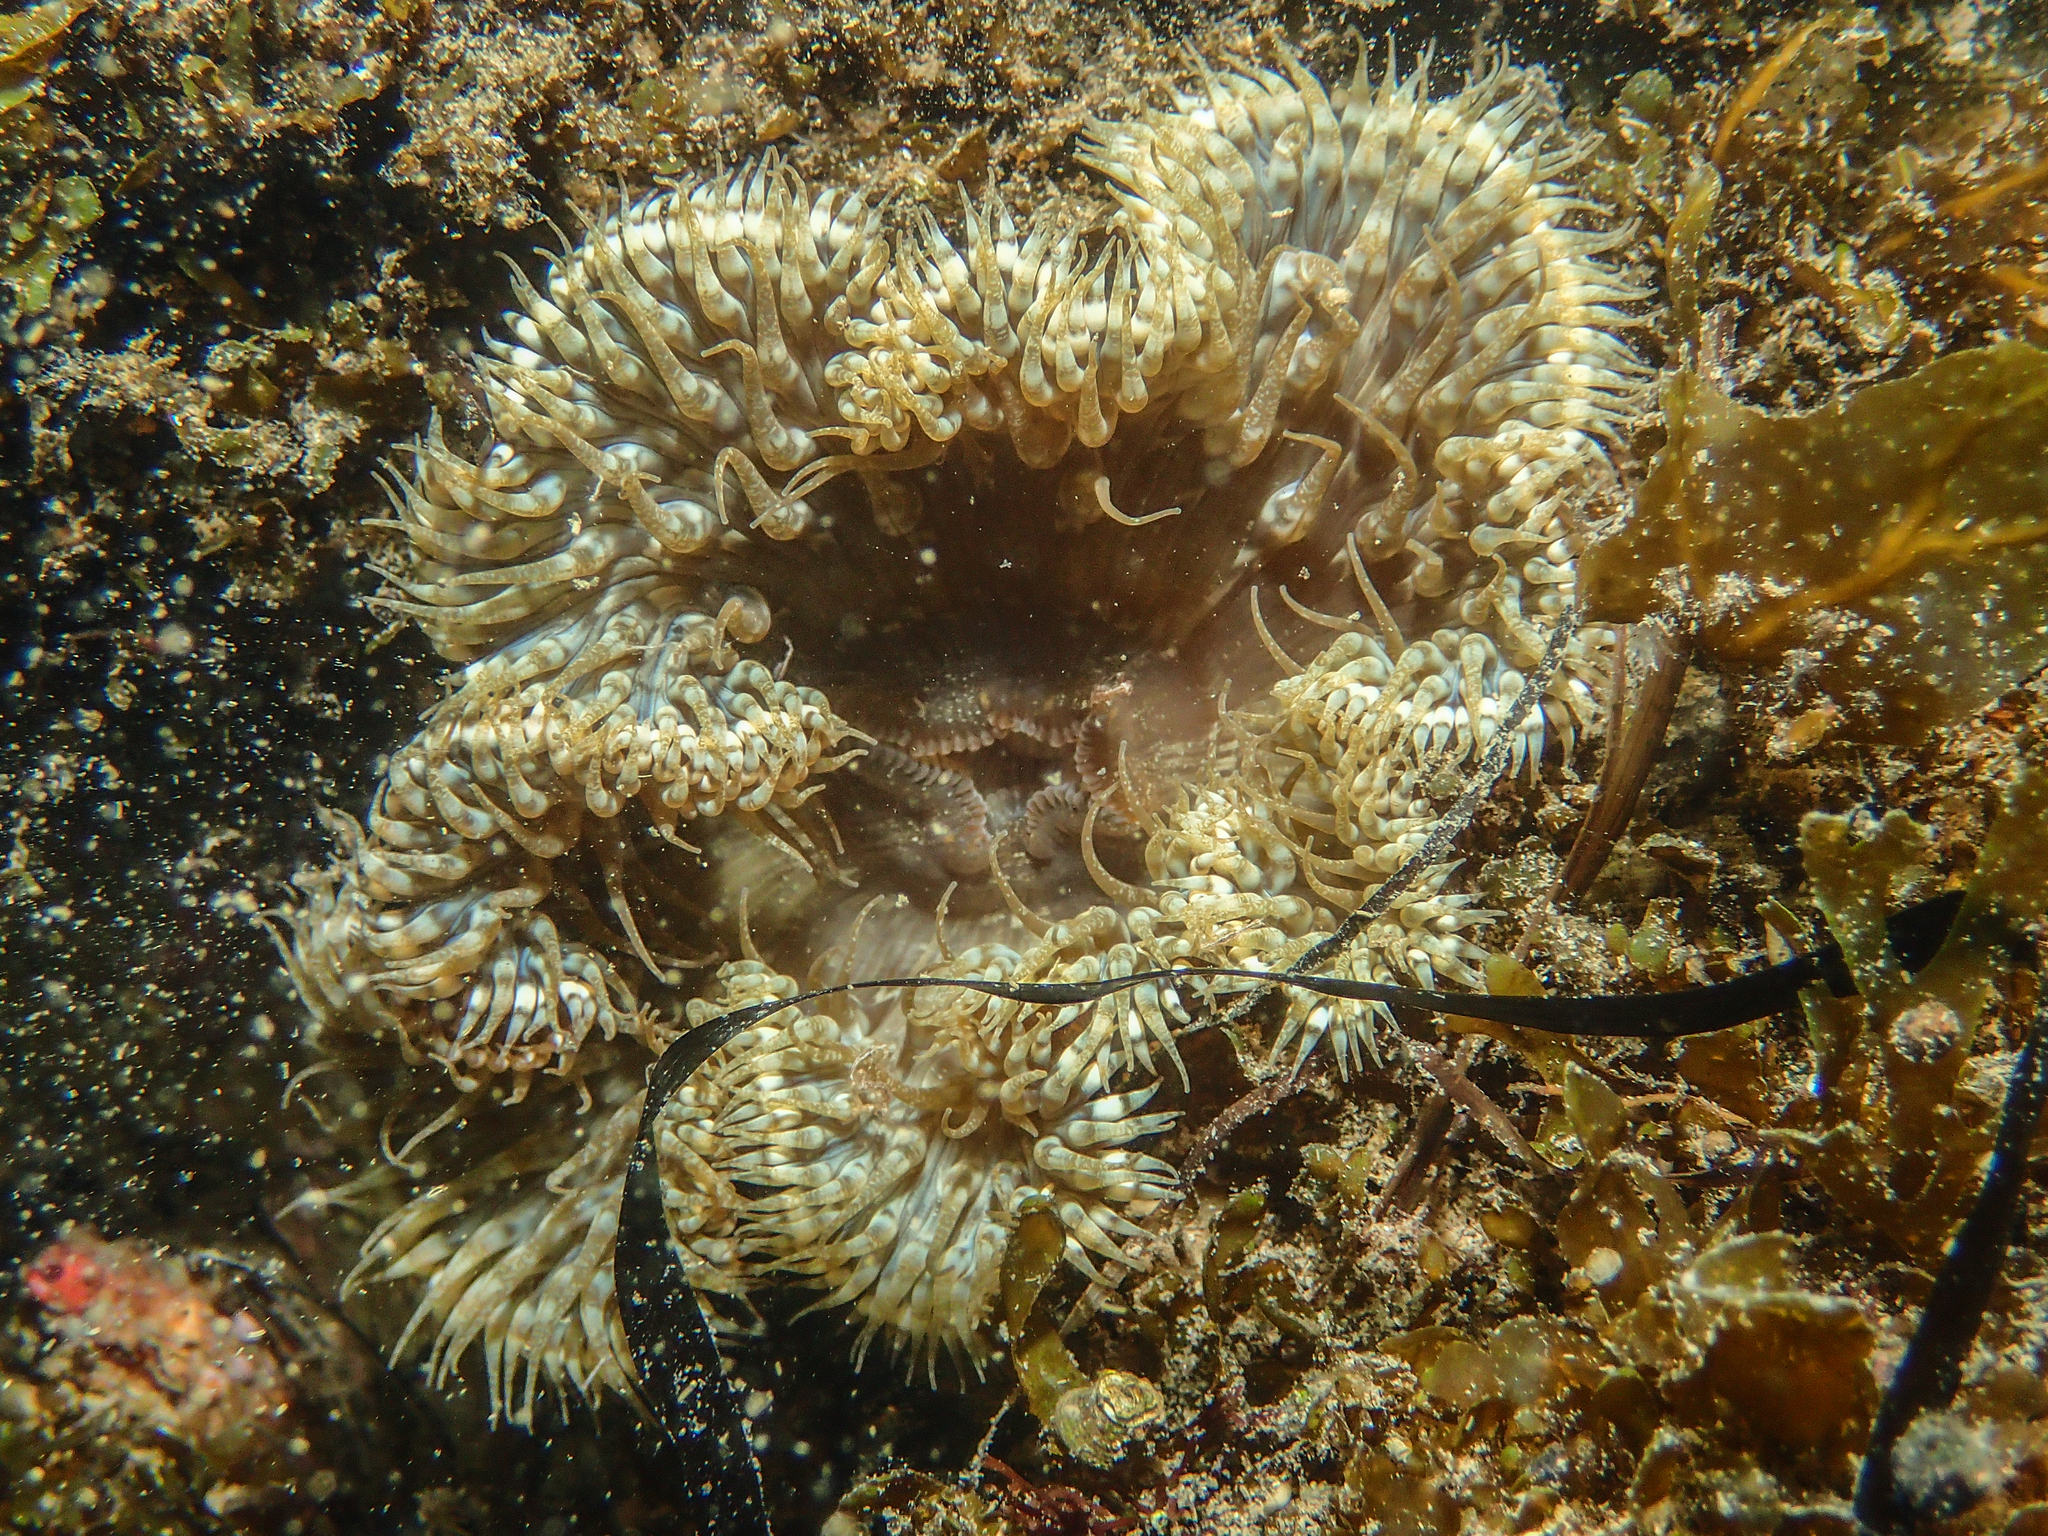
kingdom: Animalia
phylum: Cnidaria
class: Anthozoa
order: Actiniaria
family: Sagartiidae
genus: Cereus
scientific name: Cereus pedunculatus
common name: Daisy anemone
